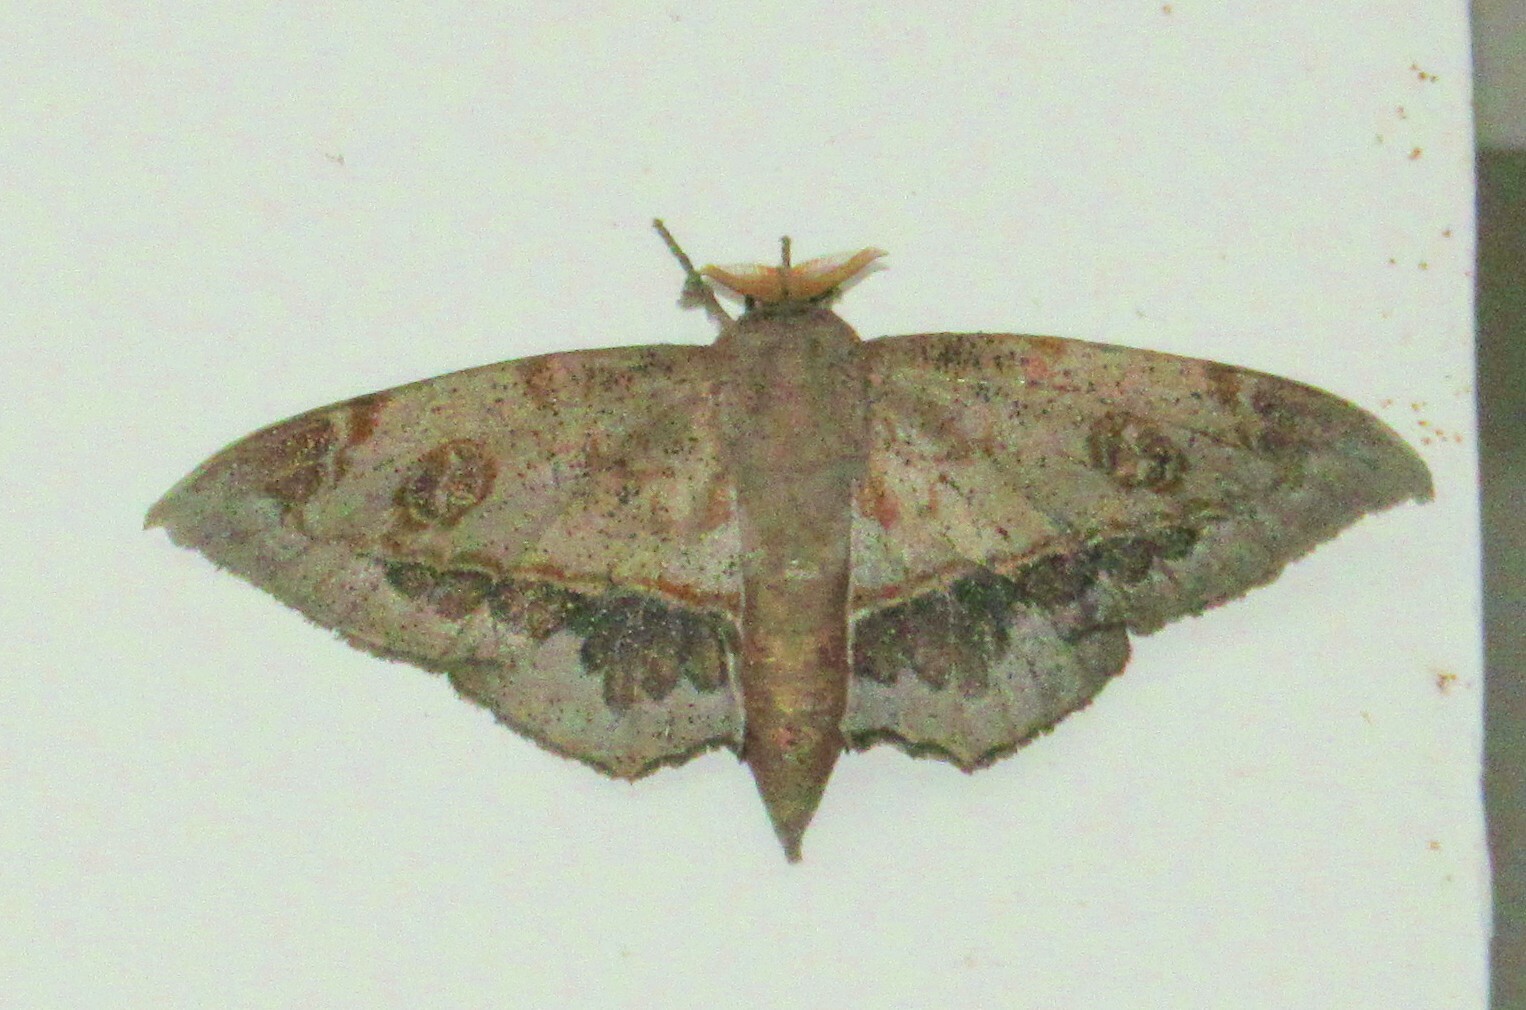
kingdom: Animalia
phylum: Arthropoda
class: Insecta
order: Lepidoptera
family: Mimallonidae
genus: Mimallo
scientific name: Mimallo amilia
